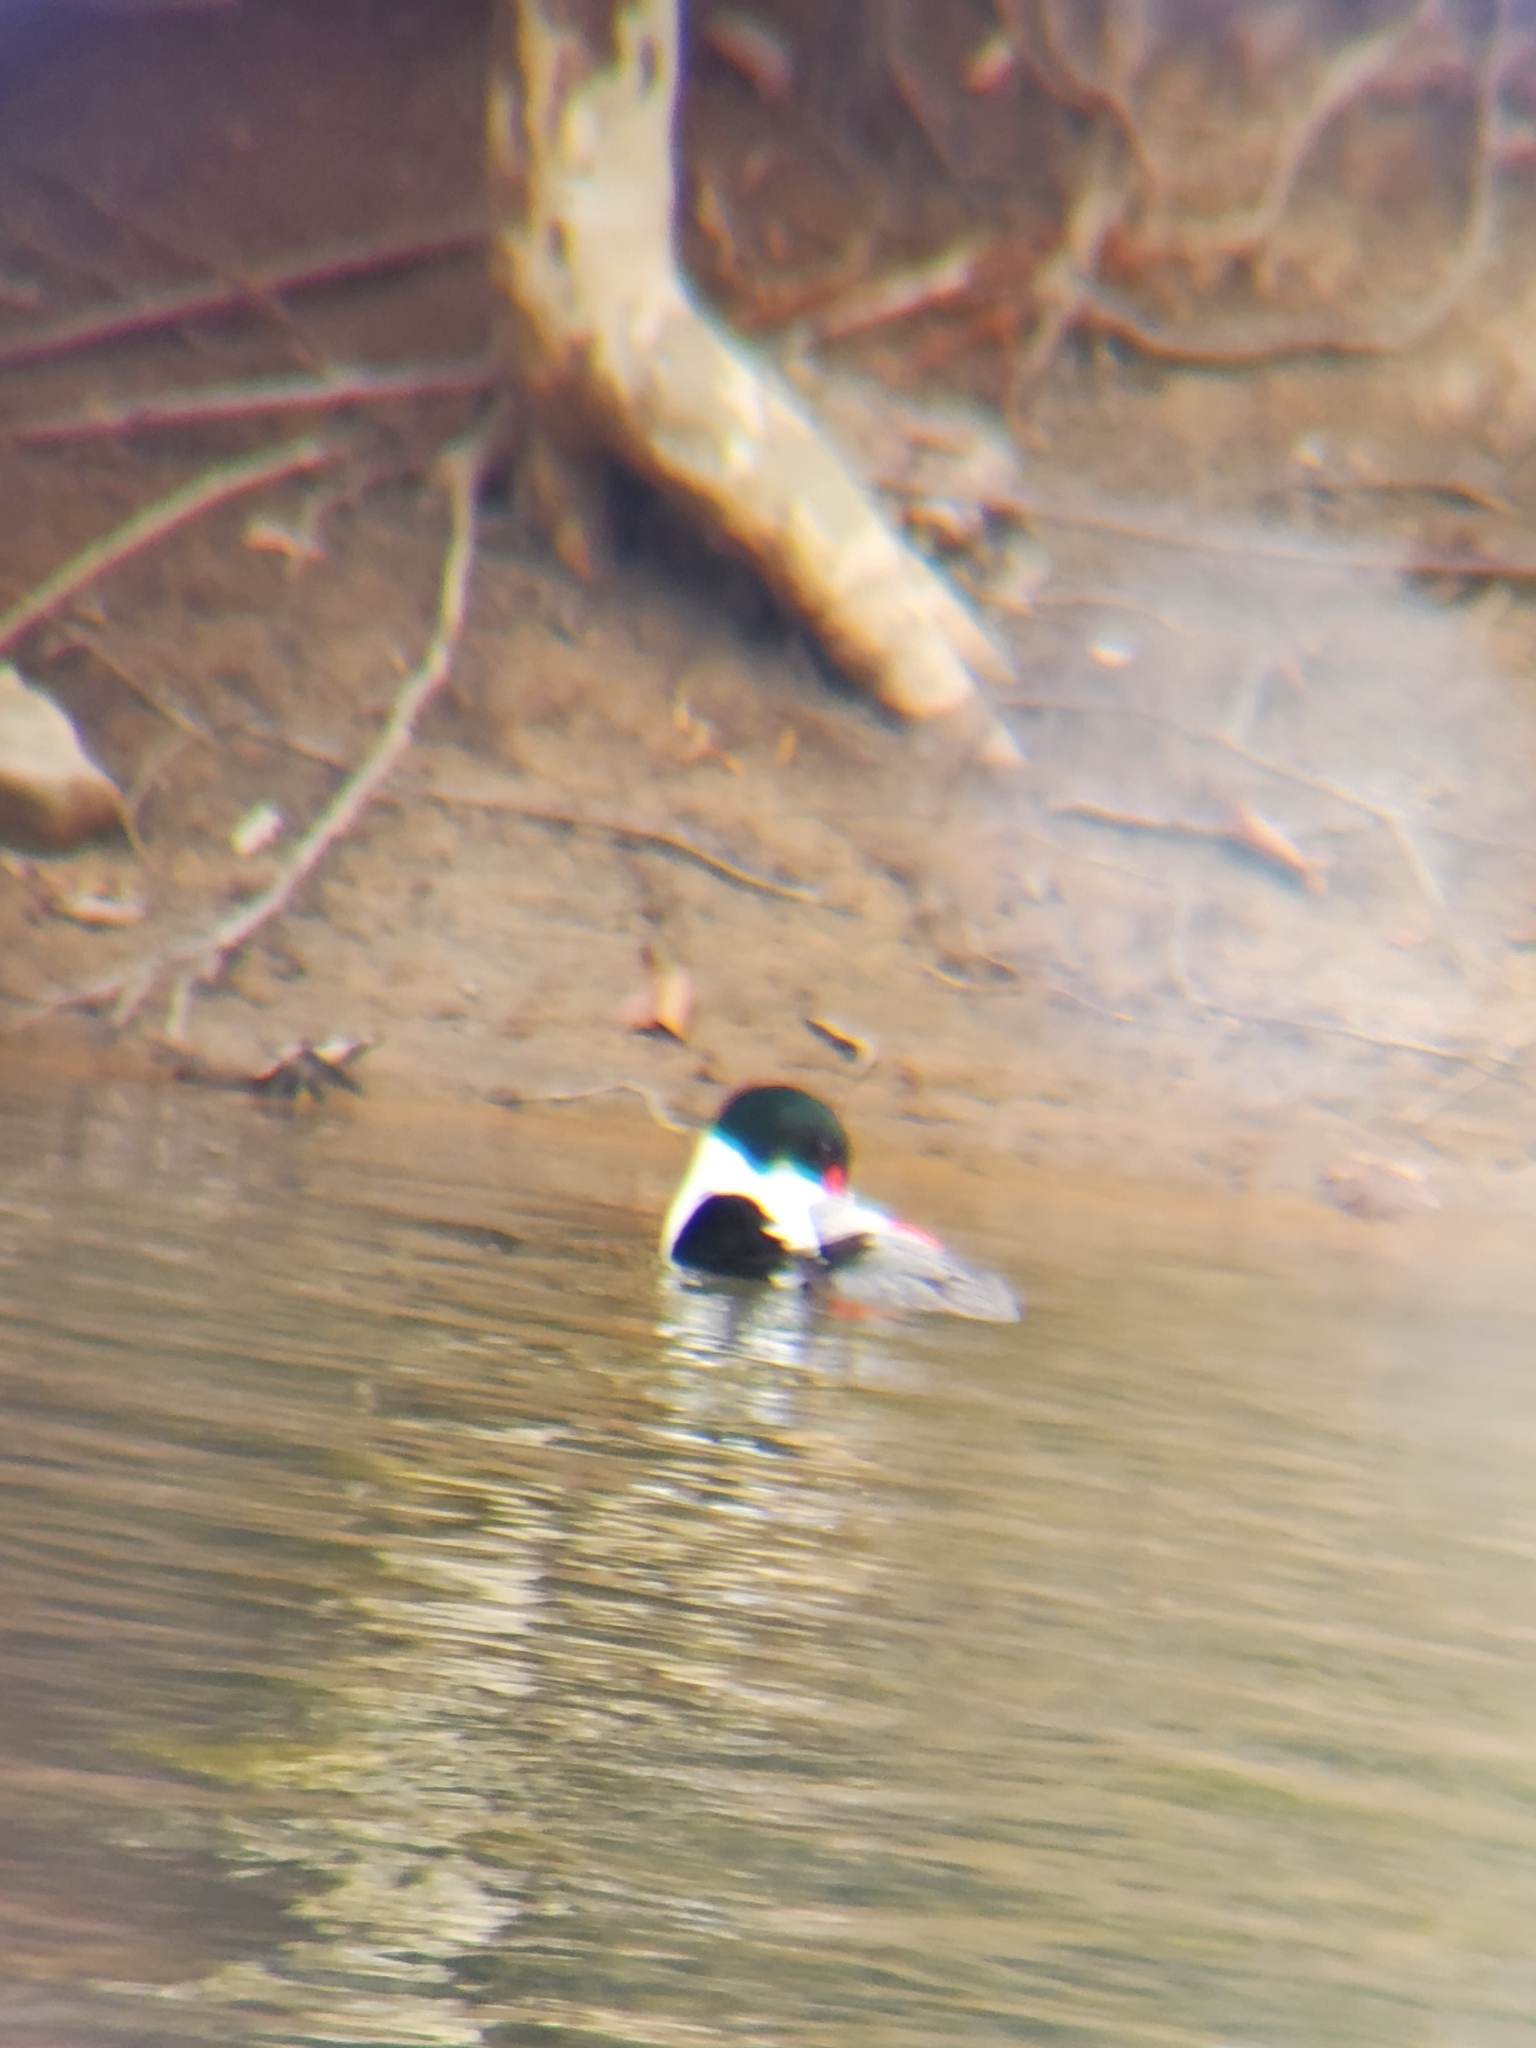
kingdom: Animalia
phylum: Chordata
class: Aves
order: Anseriformes
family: Anatidae
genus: Mergus
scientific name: Mergus merganser
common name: Common merganser
